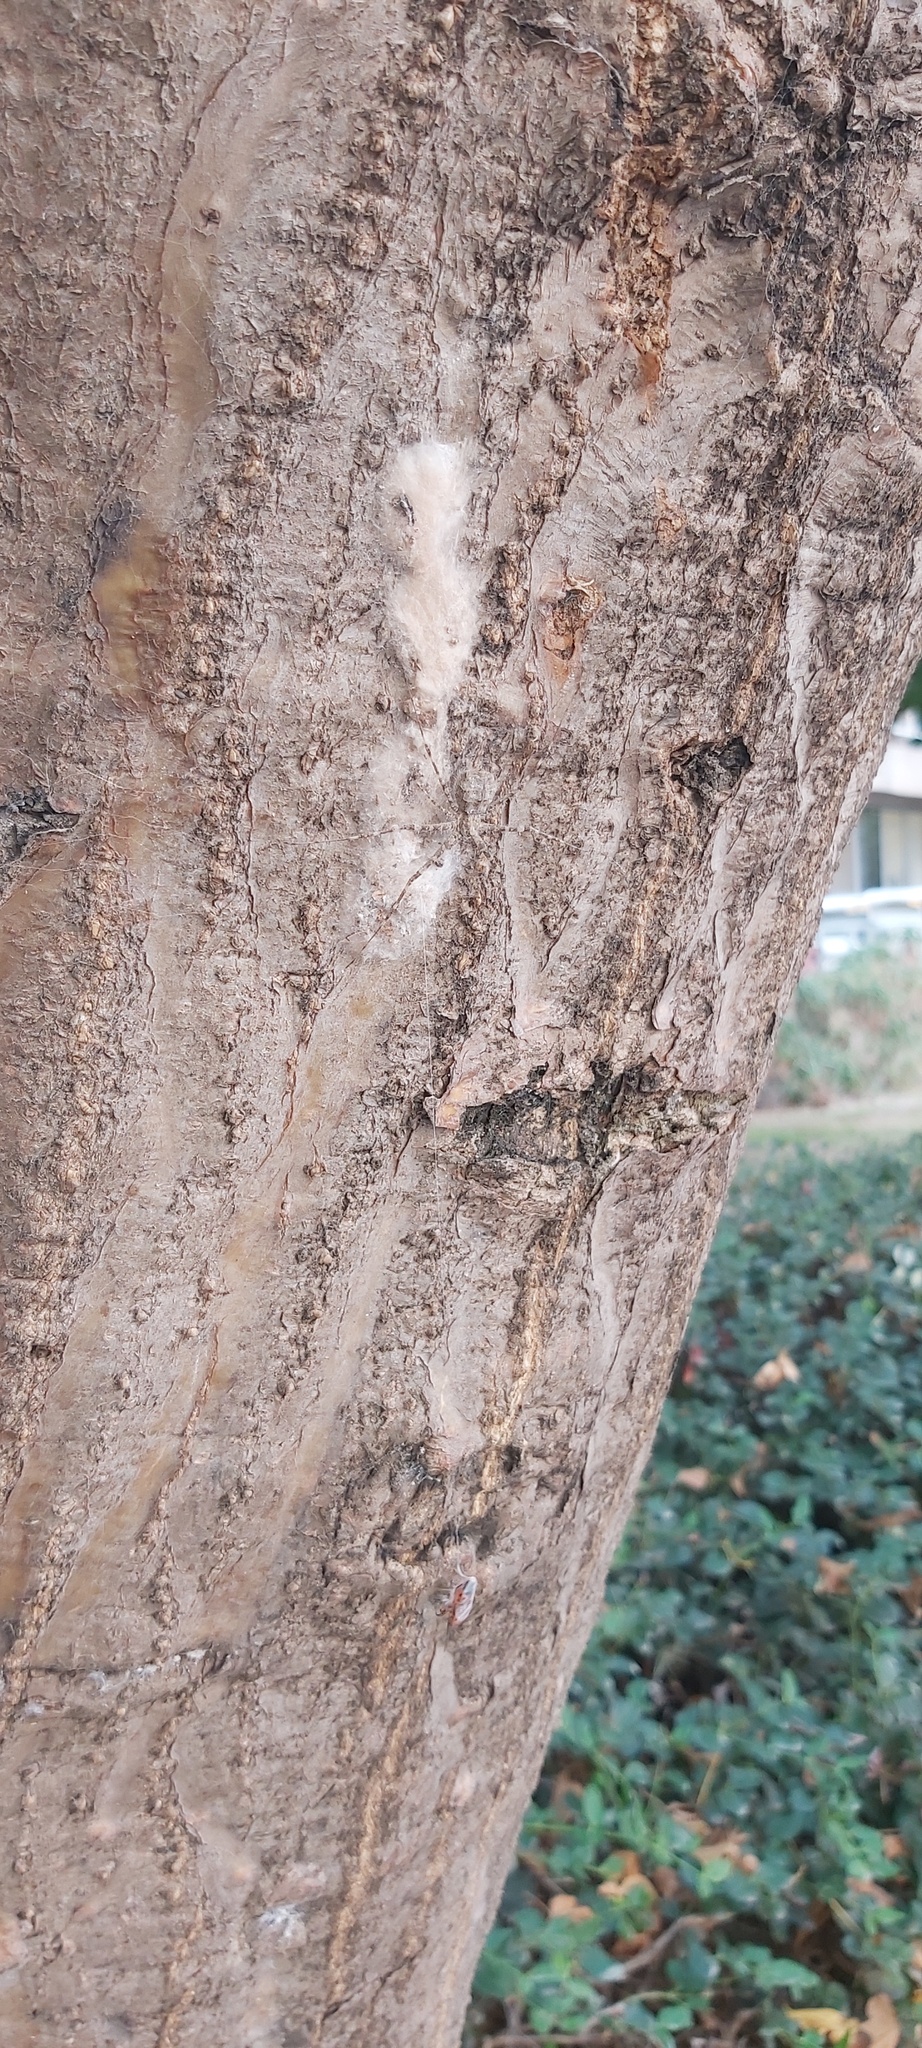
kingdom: Animalia
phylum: Arthropoda
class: Arachnida
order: Araneae
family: Hersiliidae
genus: Hersilia
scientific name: Hersilia caudata
